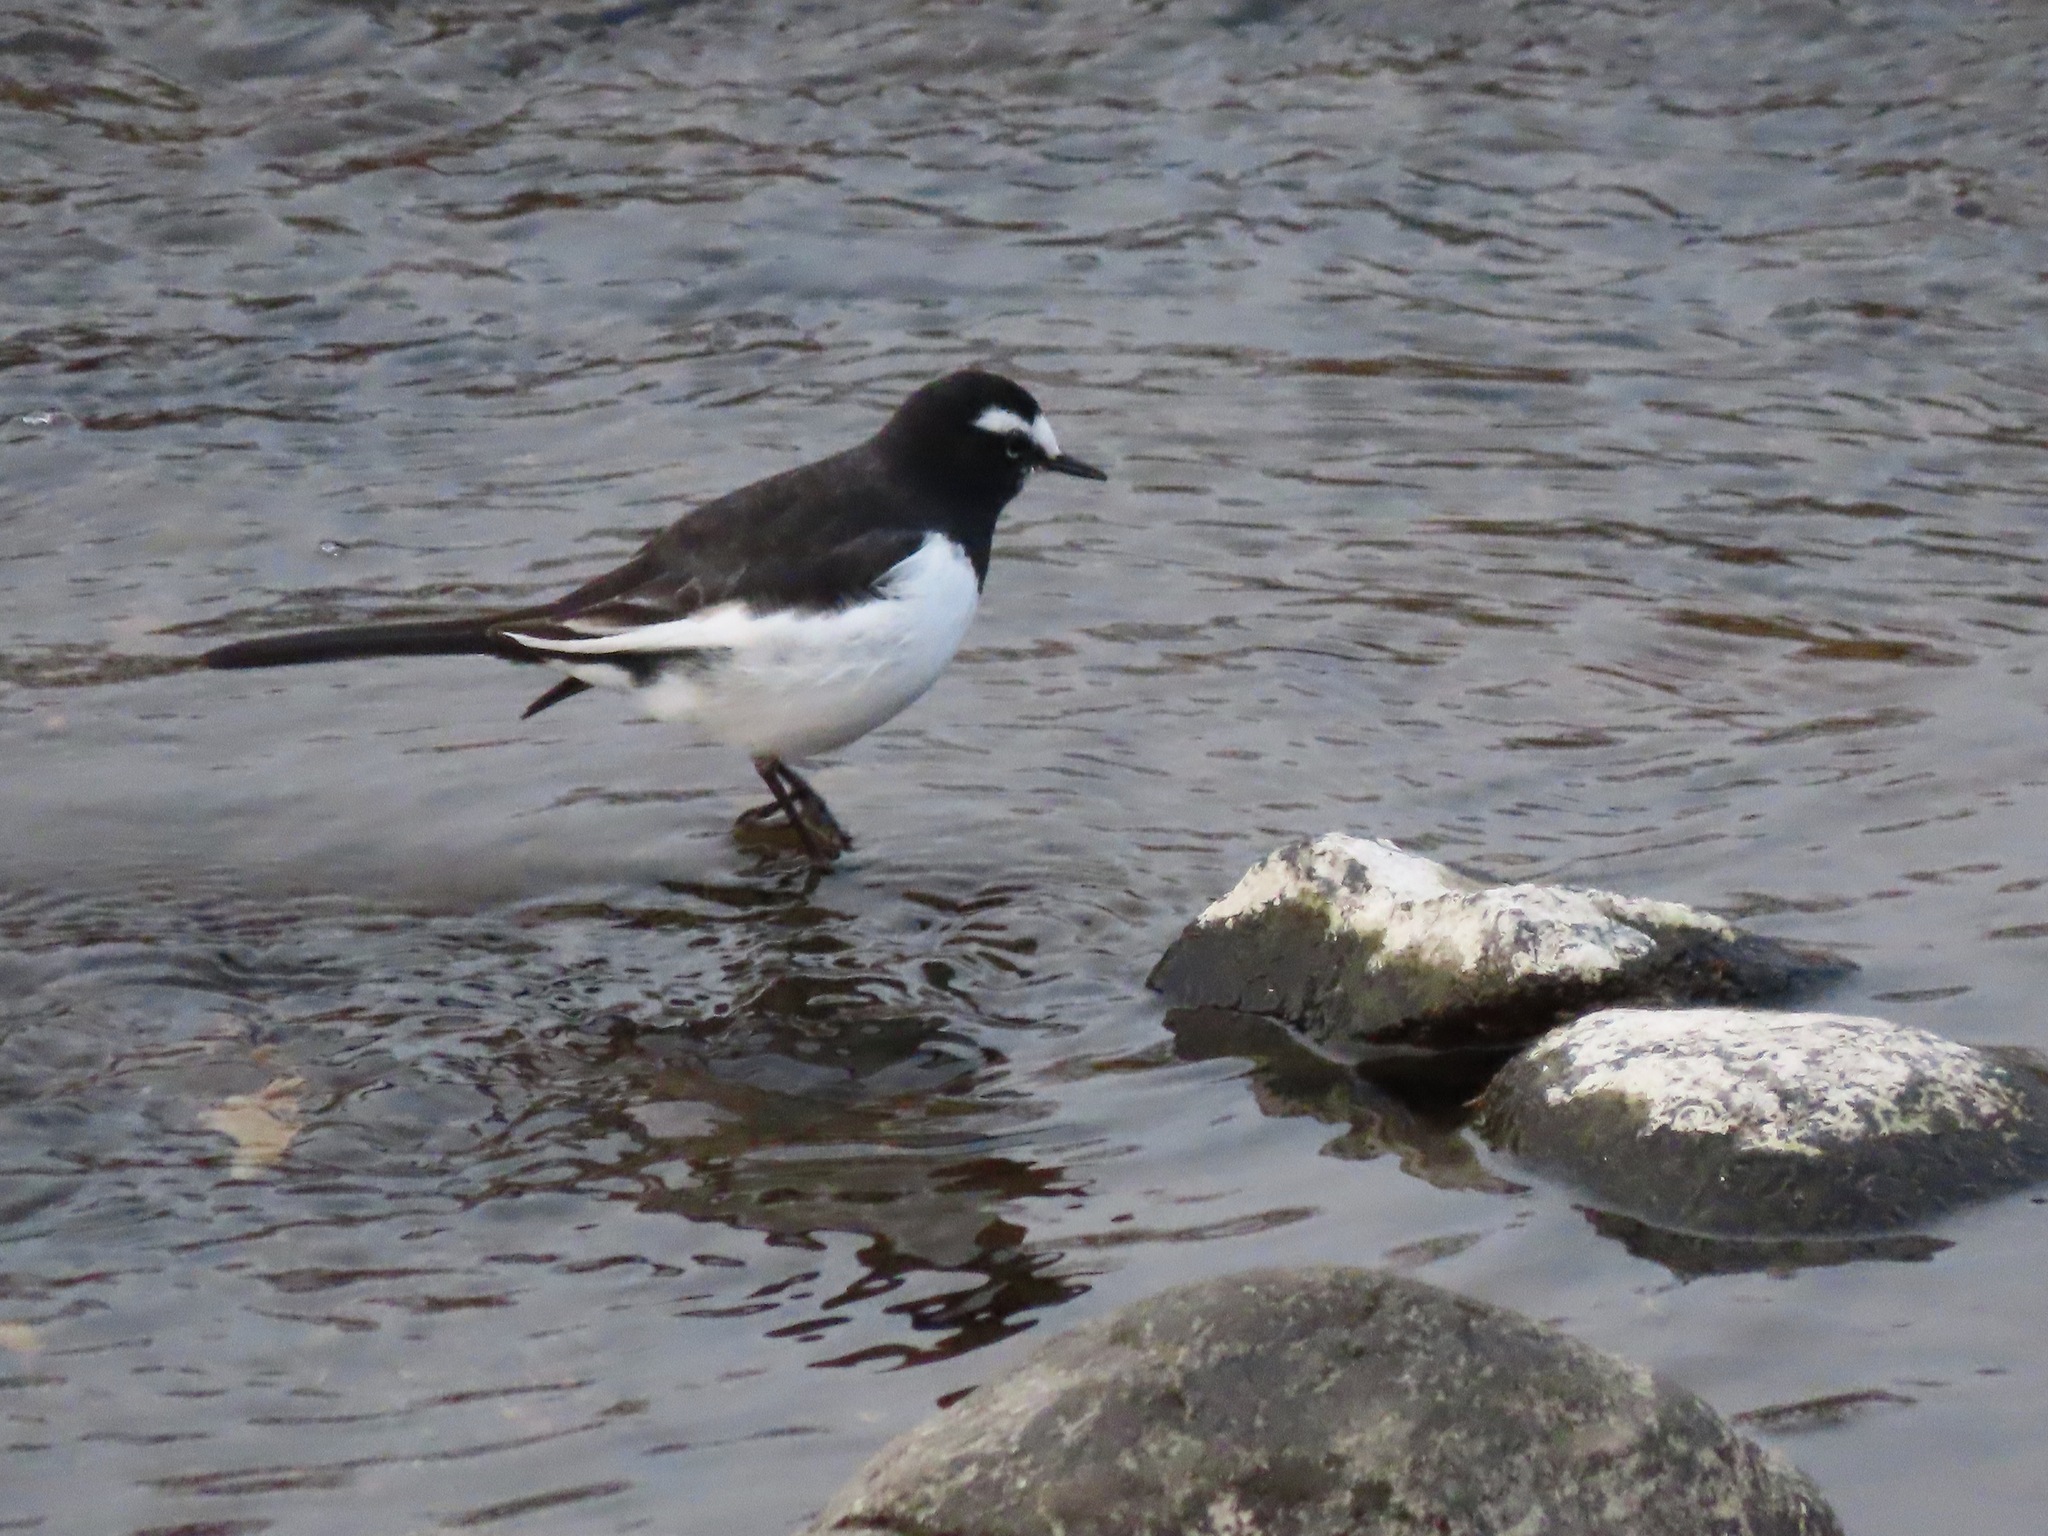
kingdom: Animalia
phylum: Chordata
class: Aves
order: Passeriformes
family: Motacillidae
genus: Motacilla
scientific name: Motacilla grandis
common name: Japanese wagtail
